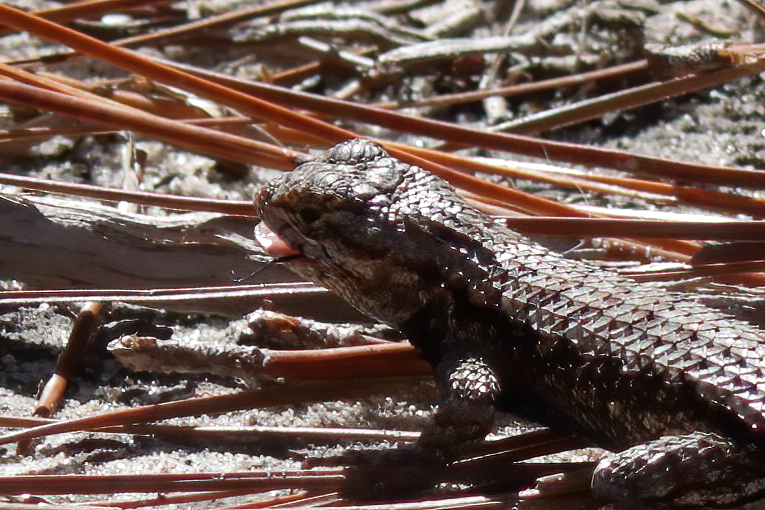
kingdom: Animalia
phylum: Chordata
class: Squamata
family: Phrynosomatidae
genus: Sceloporus
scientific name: Sceloporus undulatus
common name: Eastern fence lizard
